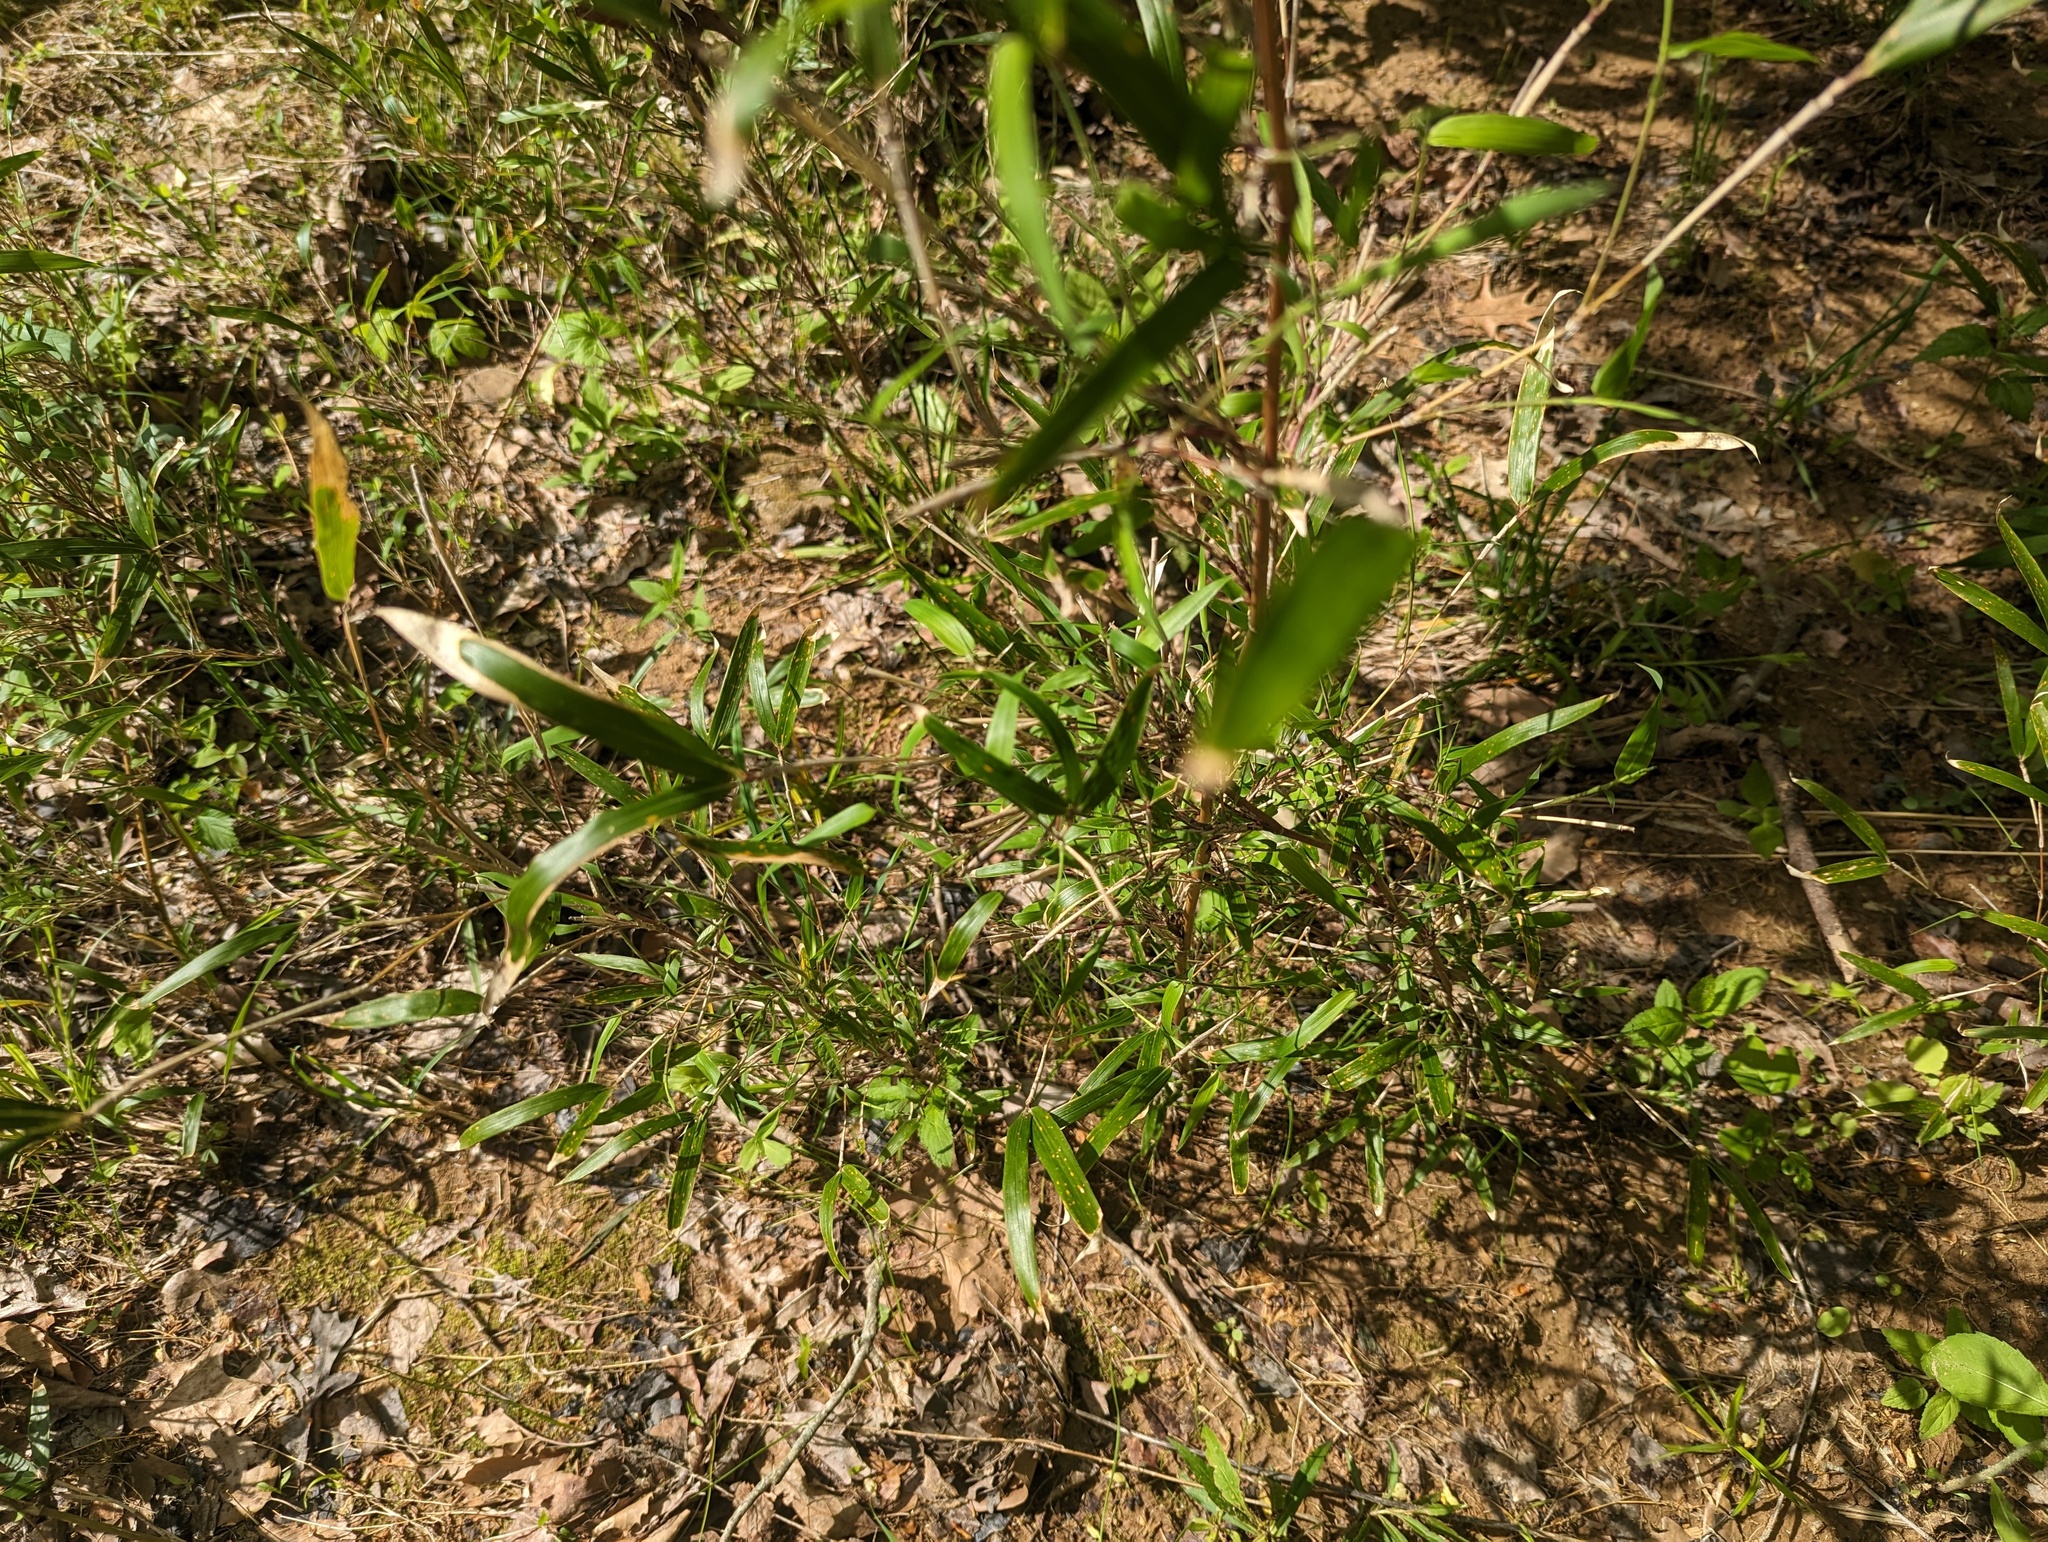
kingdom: Plantae
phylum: Tracheophyta
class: Liliopsida
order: Poales
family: Poaceae
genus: Arundinaria
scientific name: Arundinaria gigantea
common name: Giant cane
